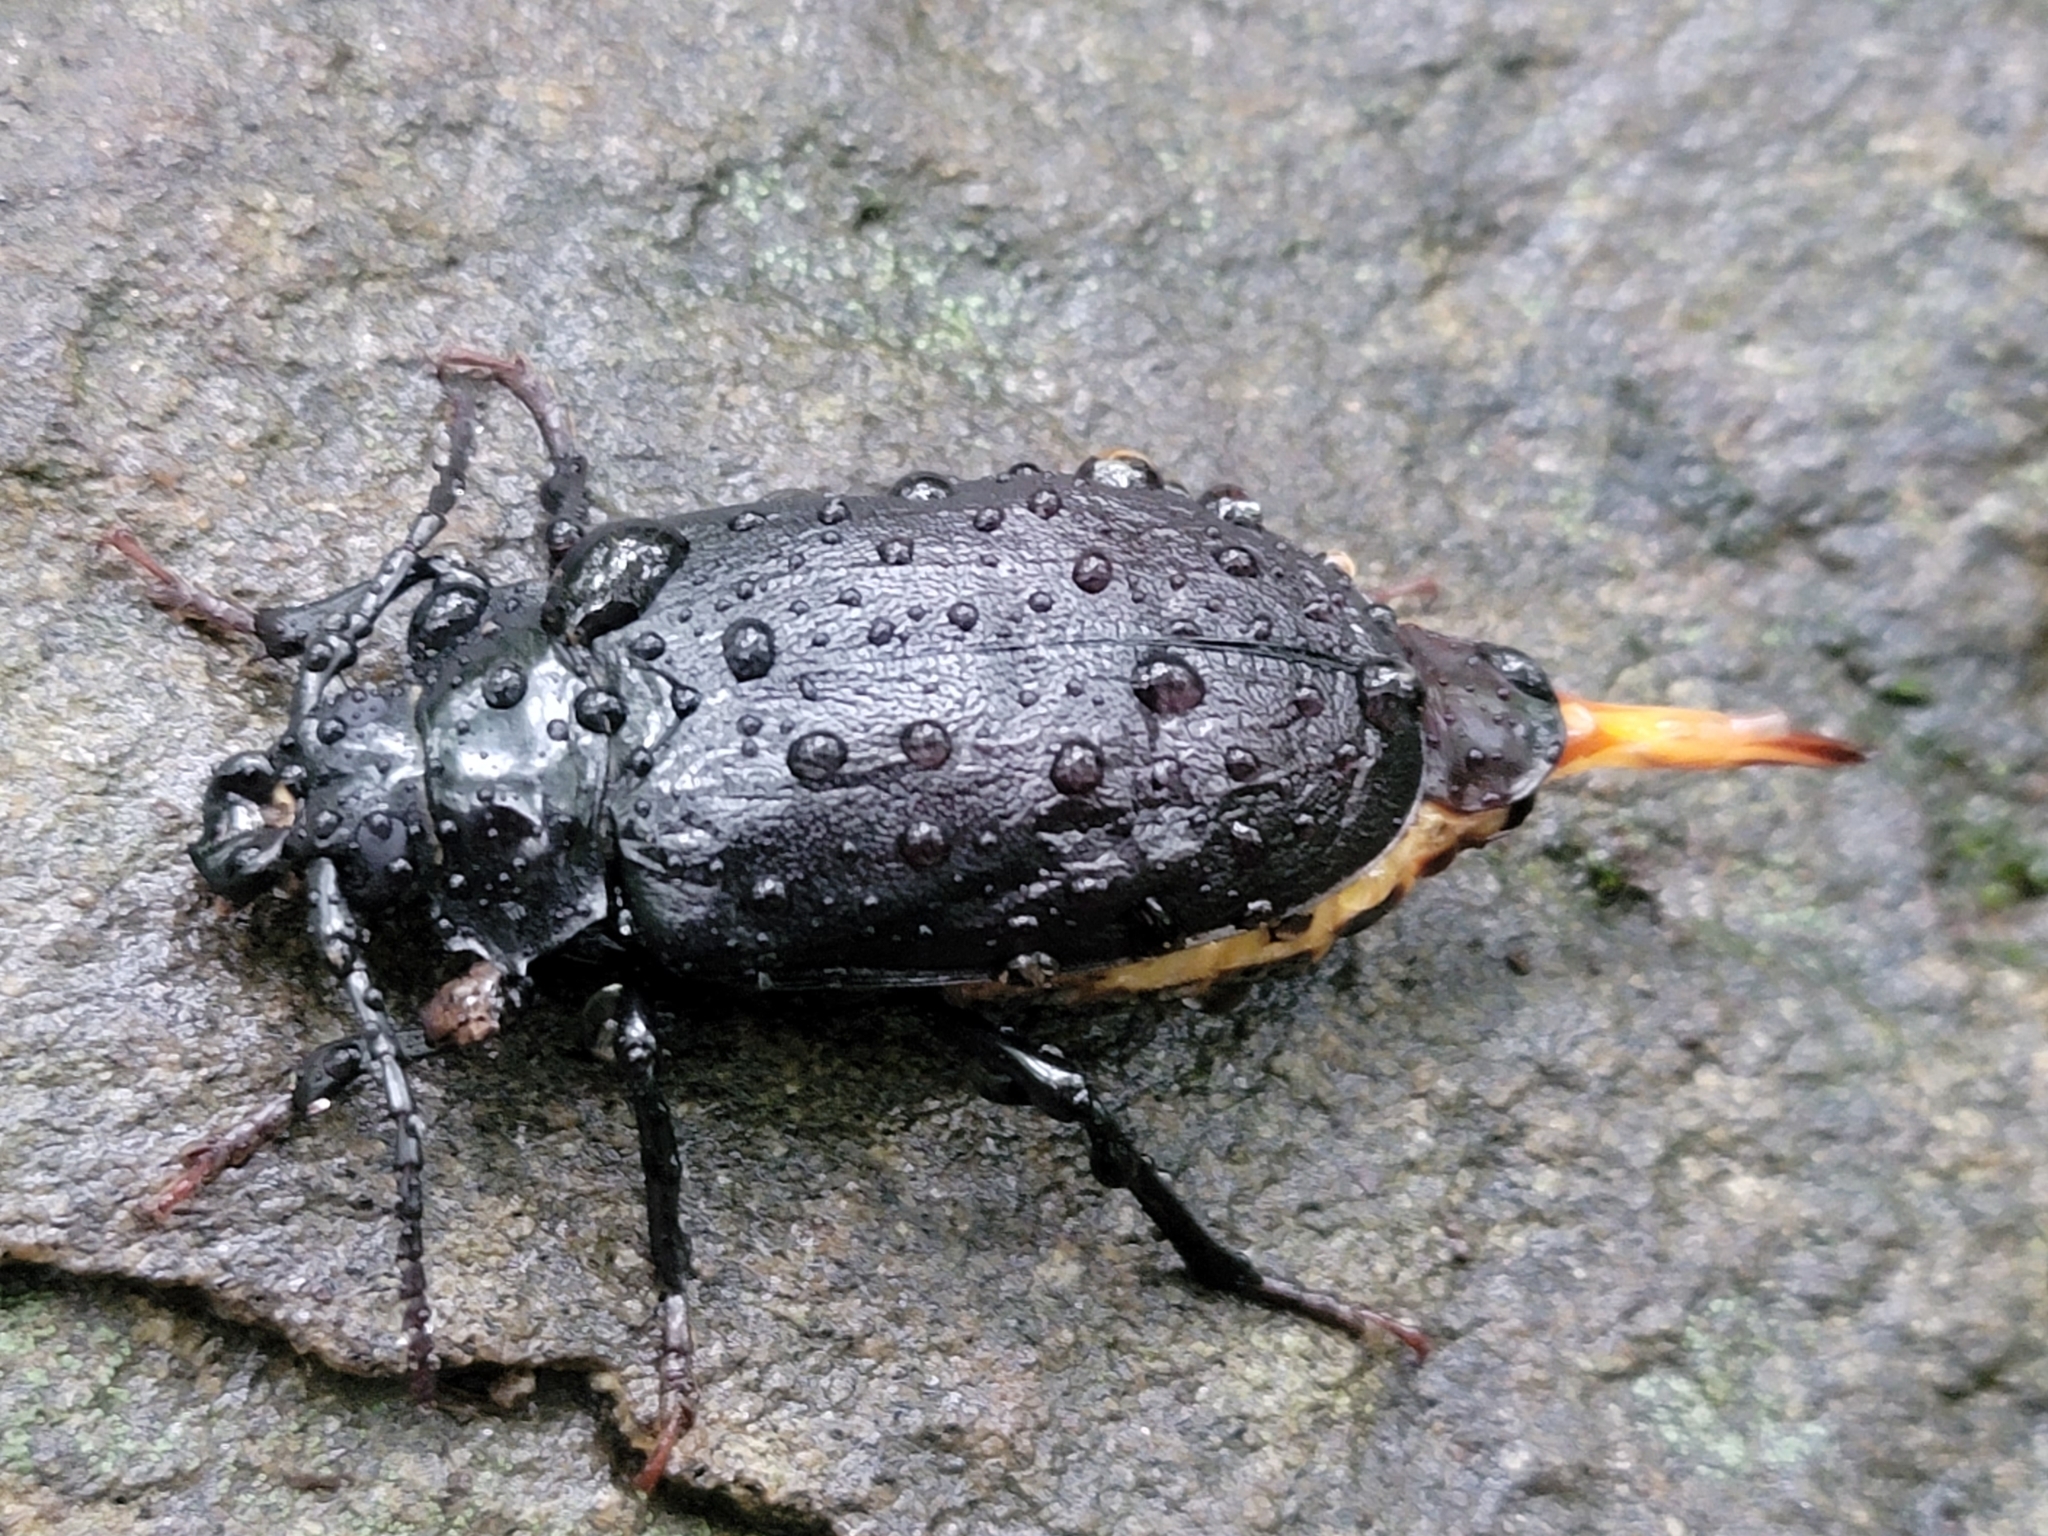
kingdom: Animalia
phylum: Arthropoda
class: Insecta
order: Coleoptera
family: Cerambycidae
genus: Prionus
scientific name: Prionus laticollis
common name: Broad necked prionus
